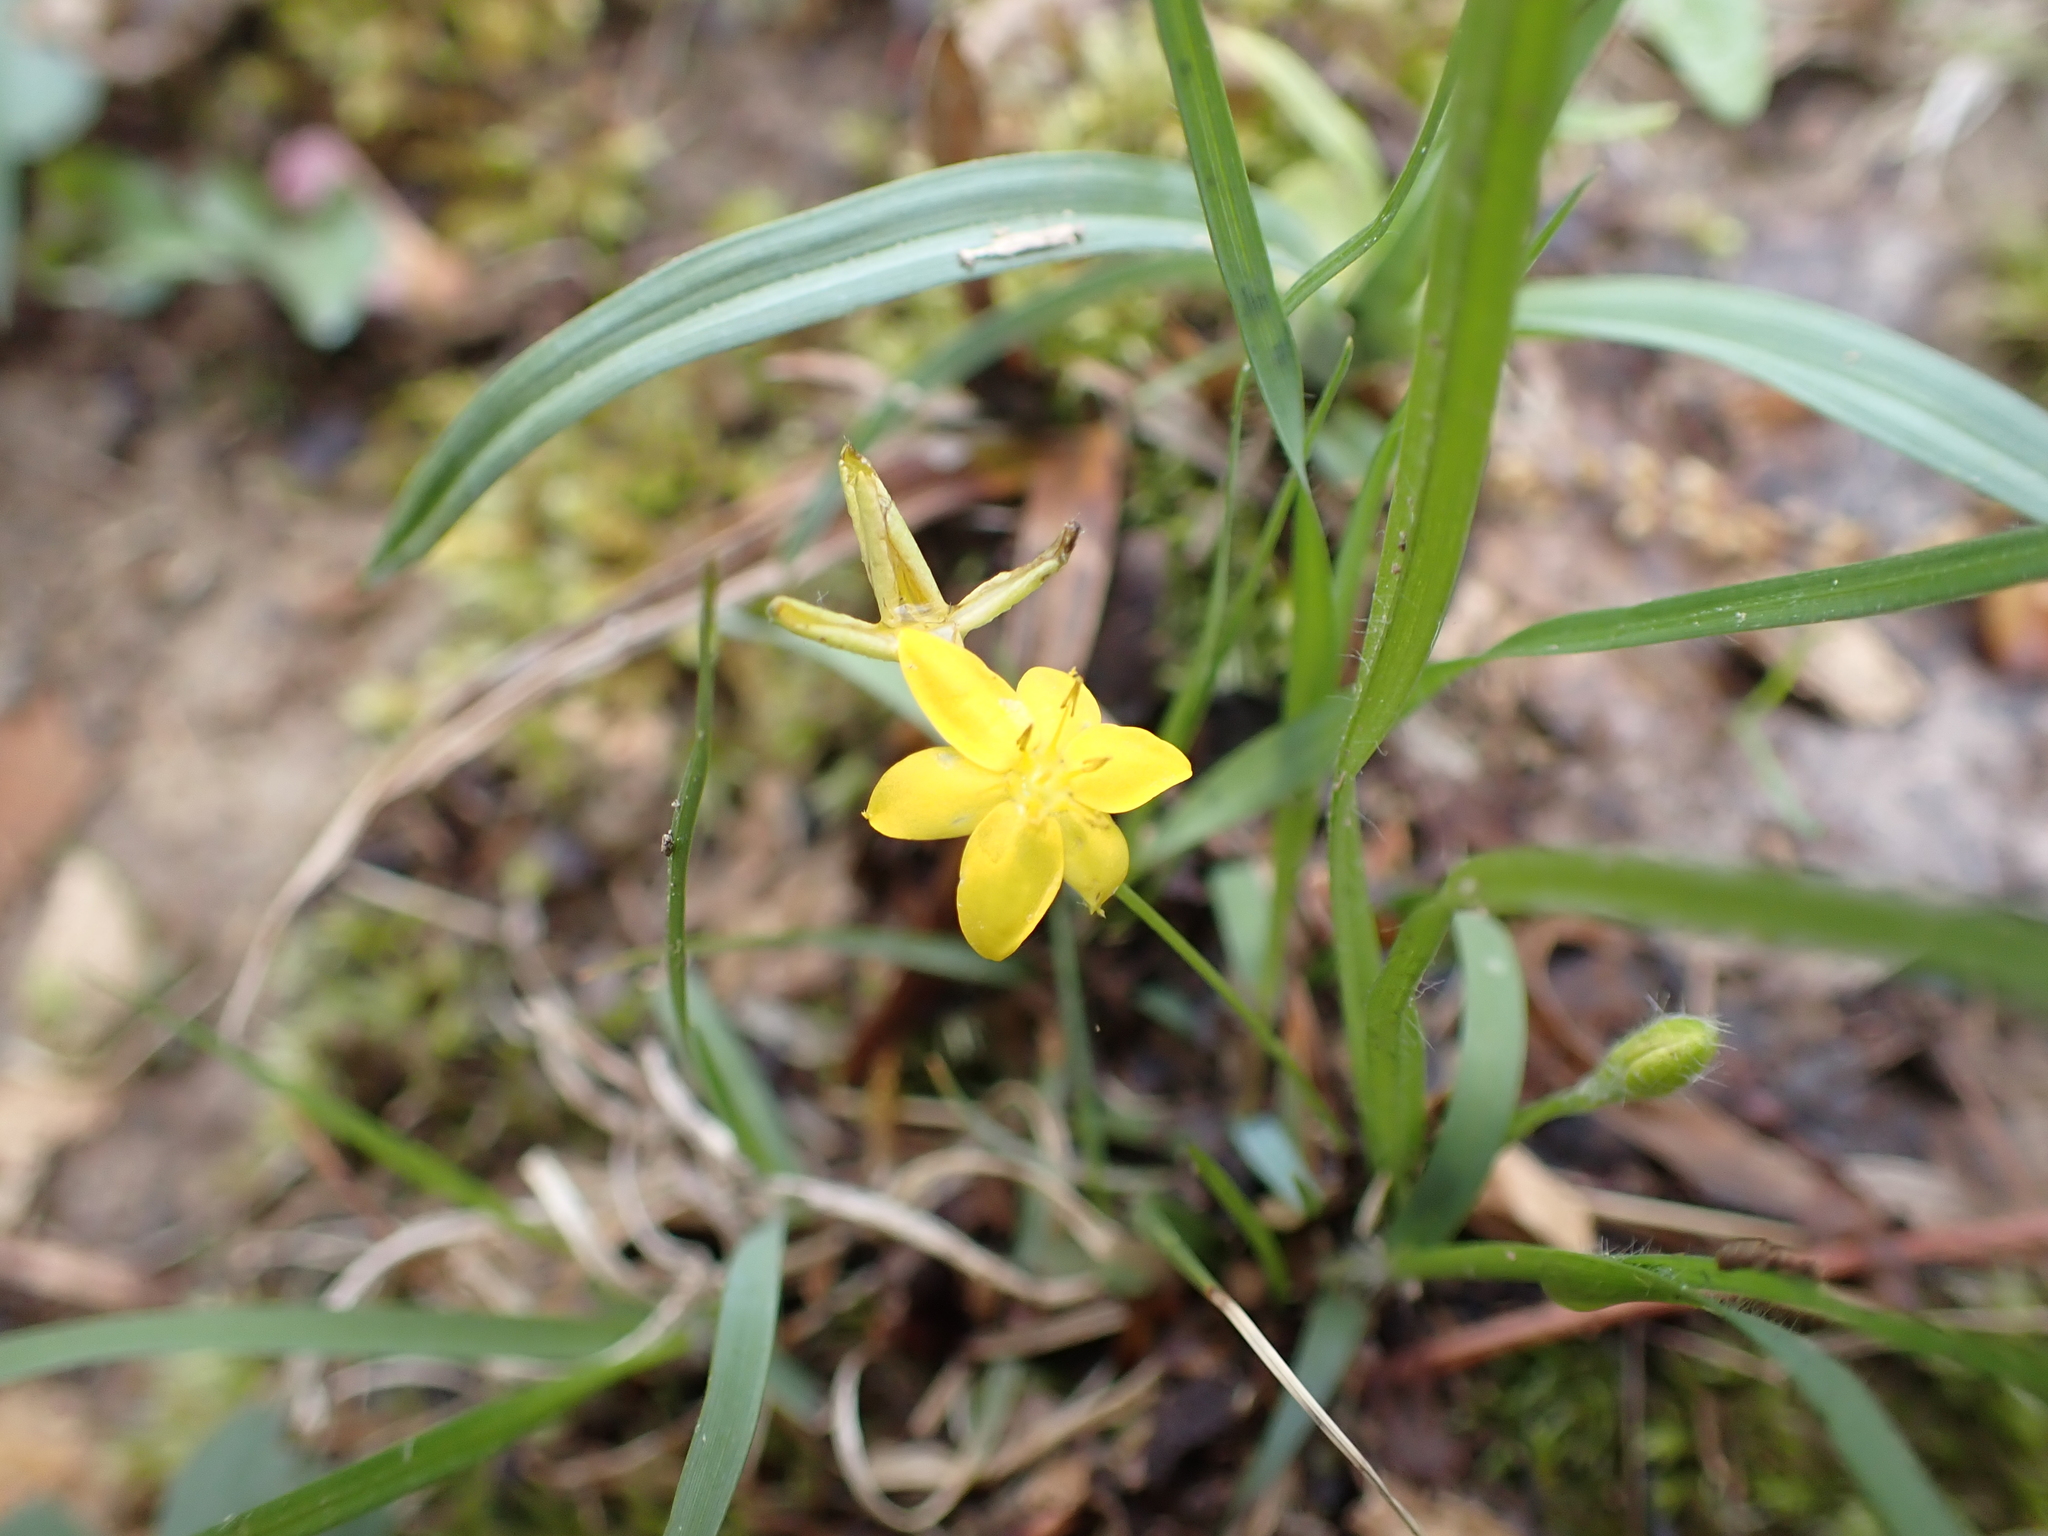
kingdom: Plantae
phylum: Tracheophyta
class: Liliopsida
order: Asparagales
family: Hypoxidaceae
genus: Hypoxis
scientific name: Hypoxis hirsuta
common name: Common goldstar
